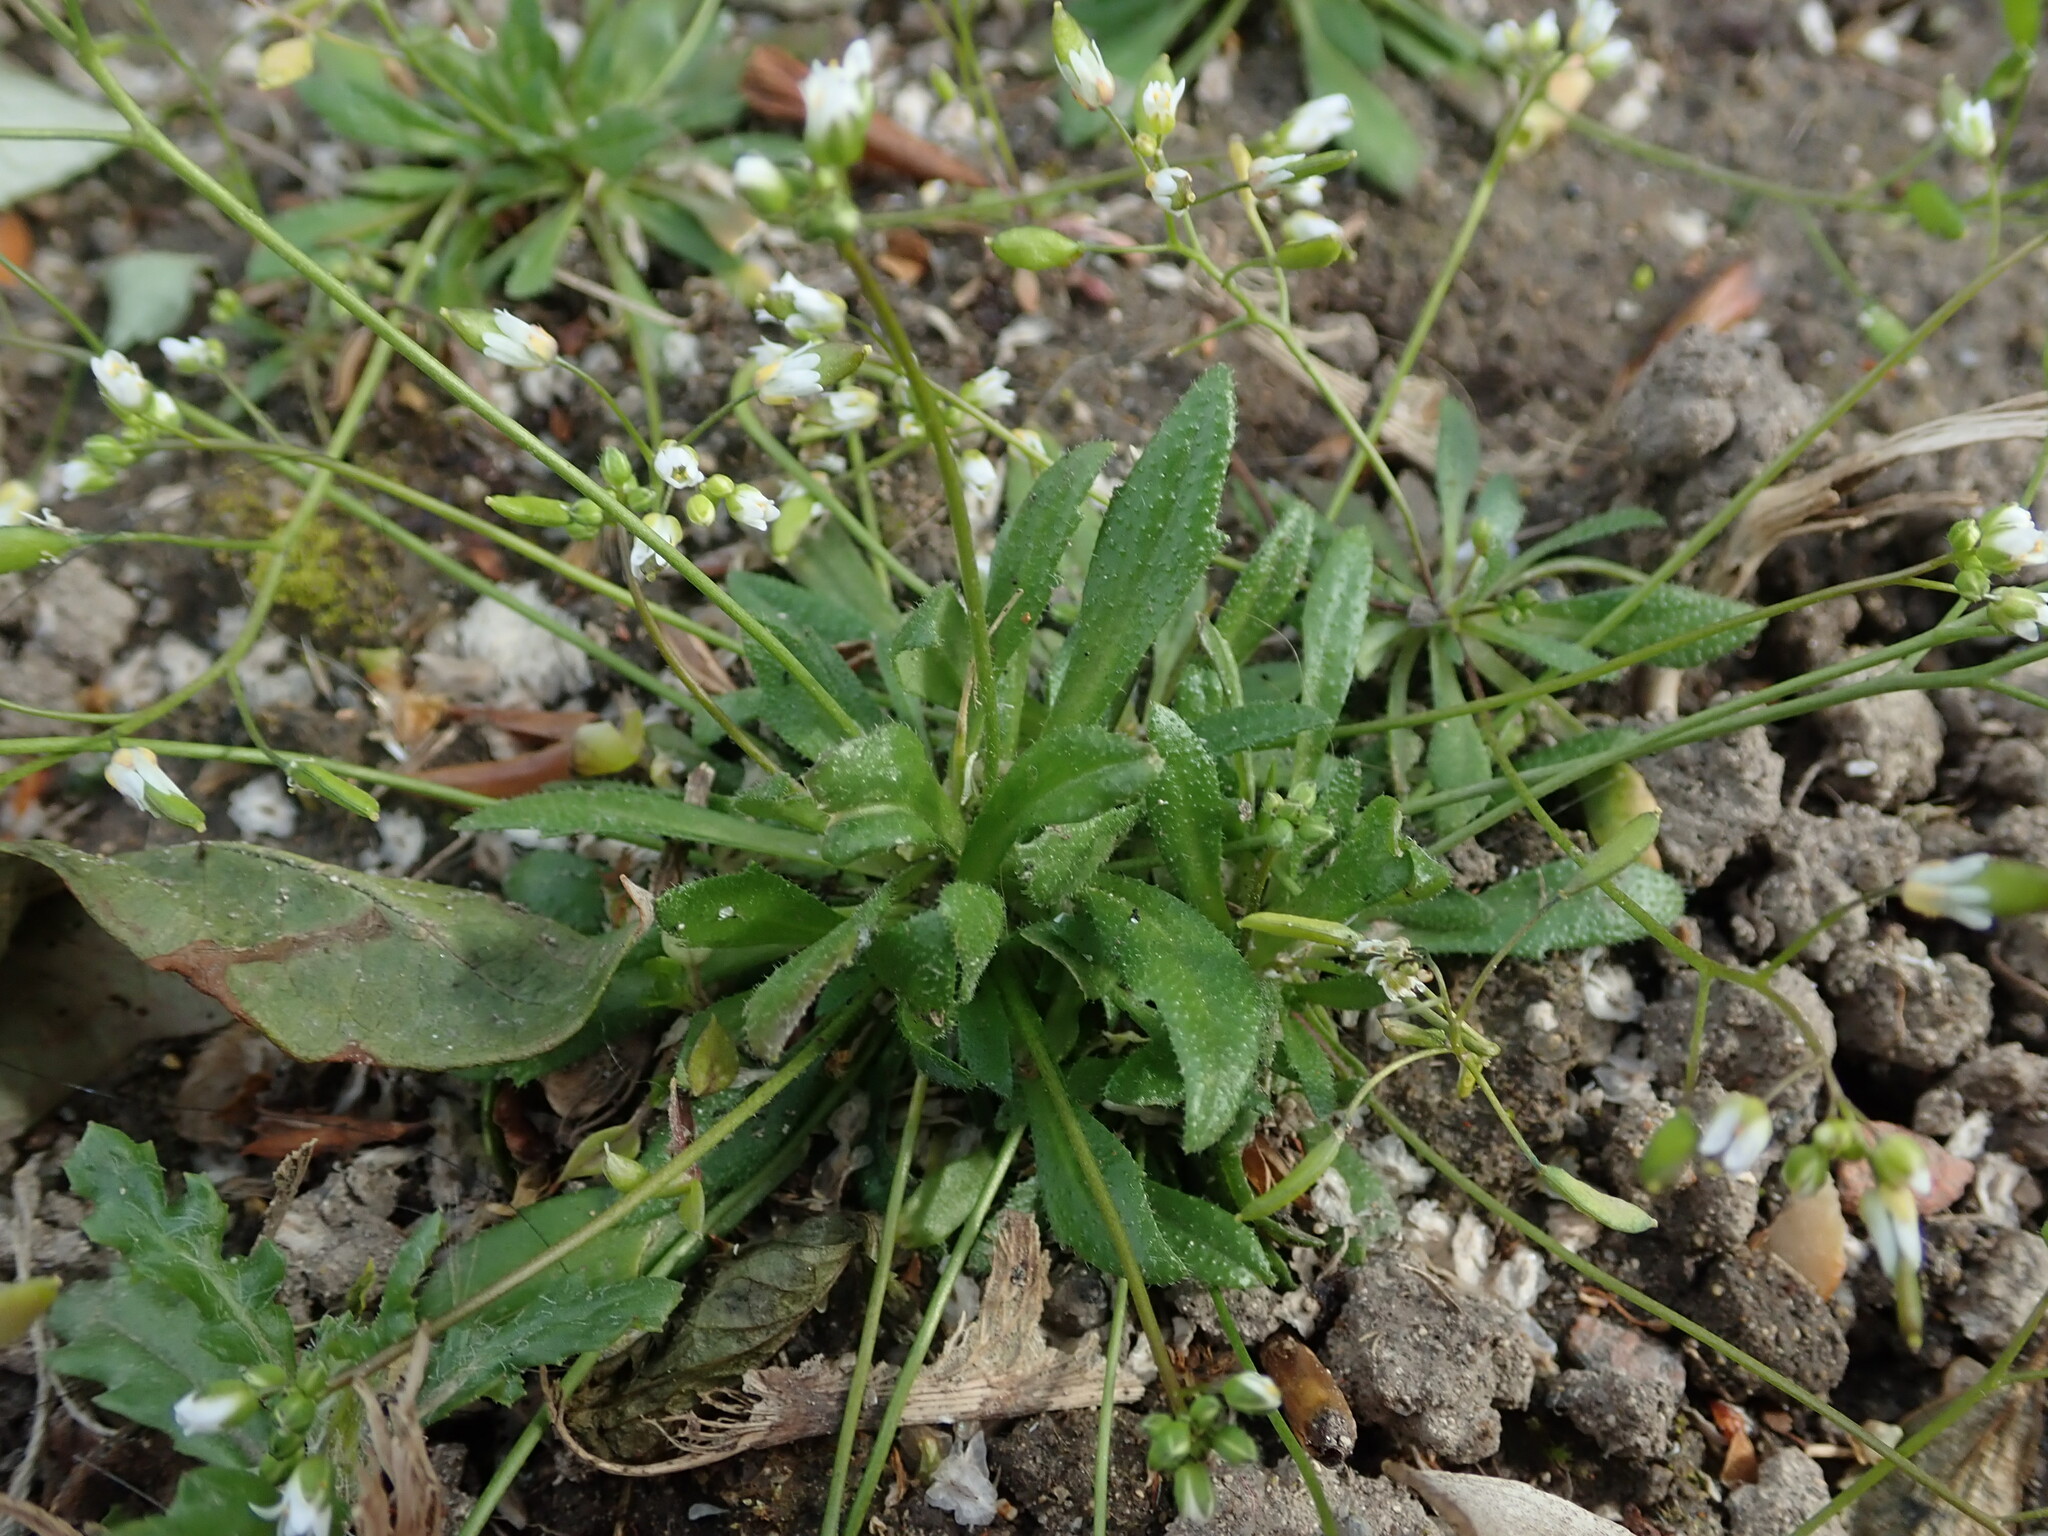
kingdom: Plantae
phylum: Tracheophyta
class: Magnoliopsida
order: Brassicales
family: Brassicaceae
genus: Draba
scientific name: Draba verna
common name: Spring draba
